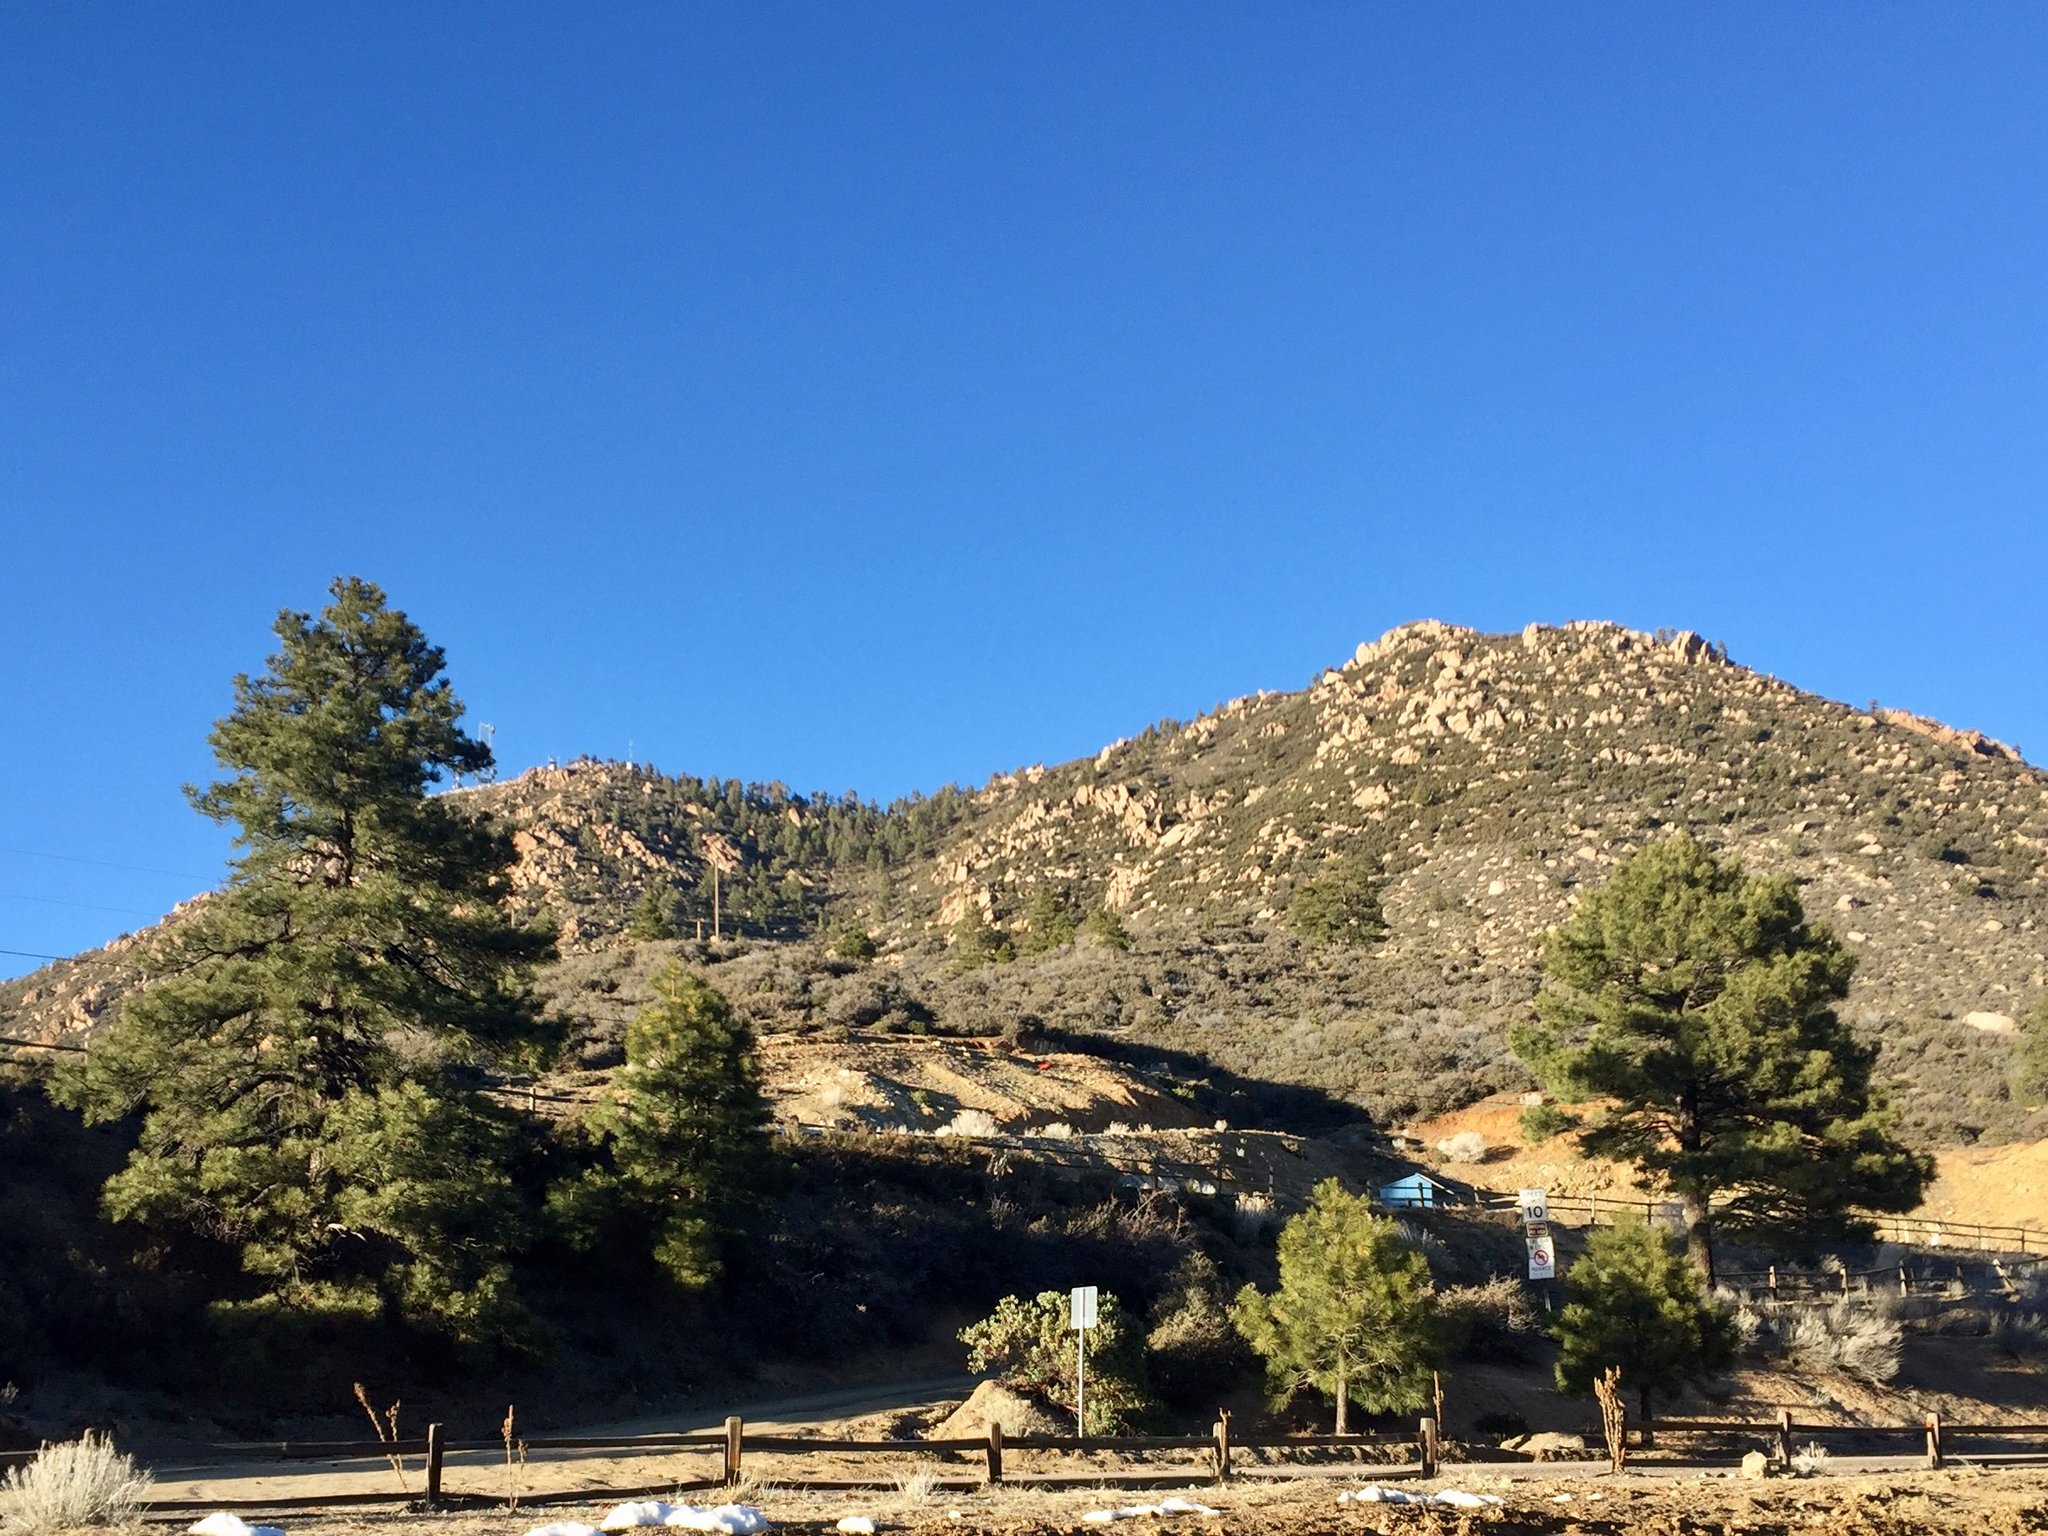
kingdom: Plantae
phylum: Tracheophyta
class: Pinopsida
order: Pinales
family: Pinaceae
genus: Pinus
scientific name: Pinus ponderosa
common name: Western yellow-pine
